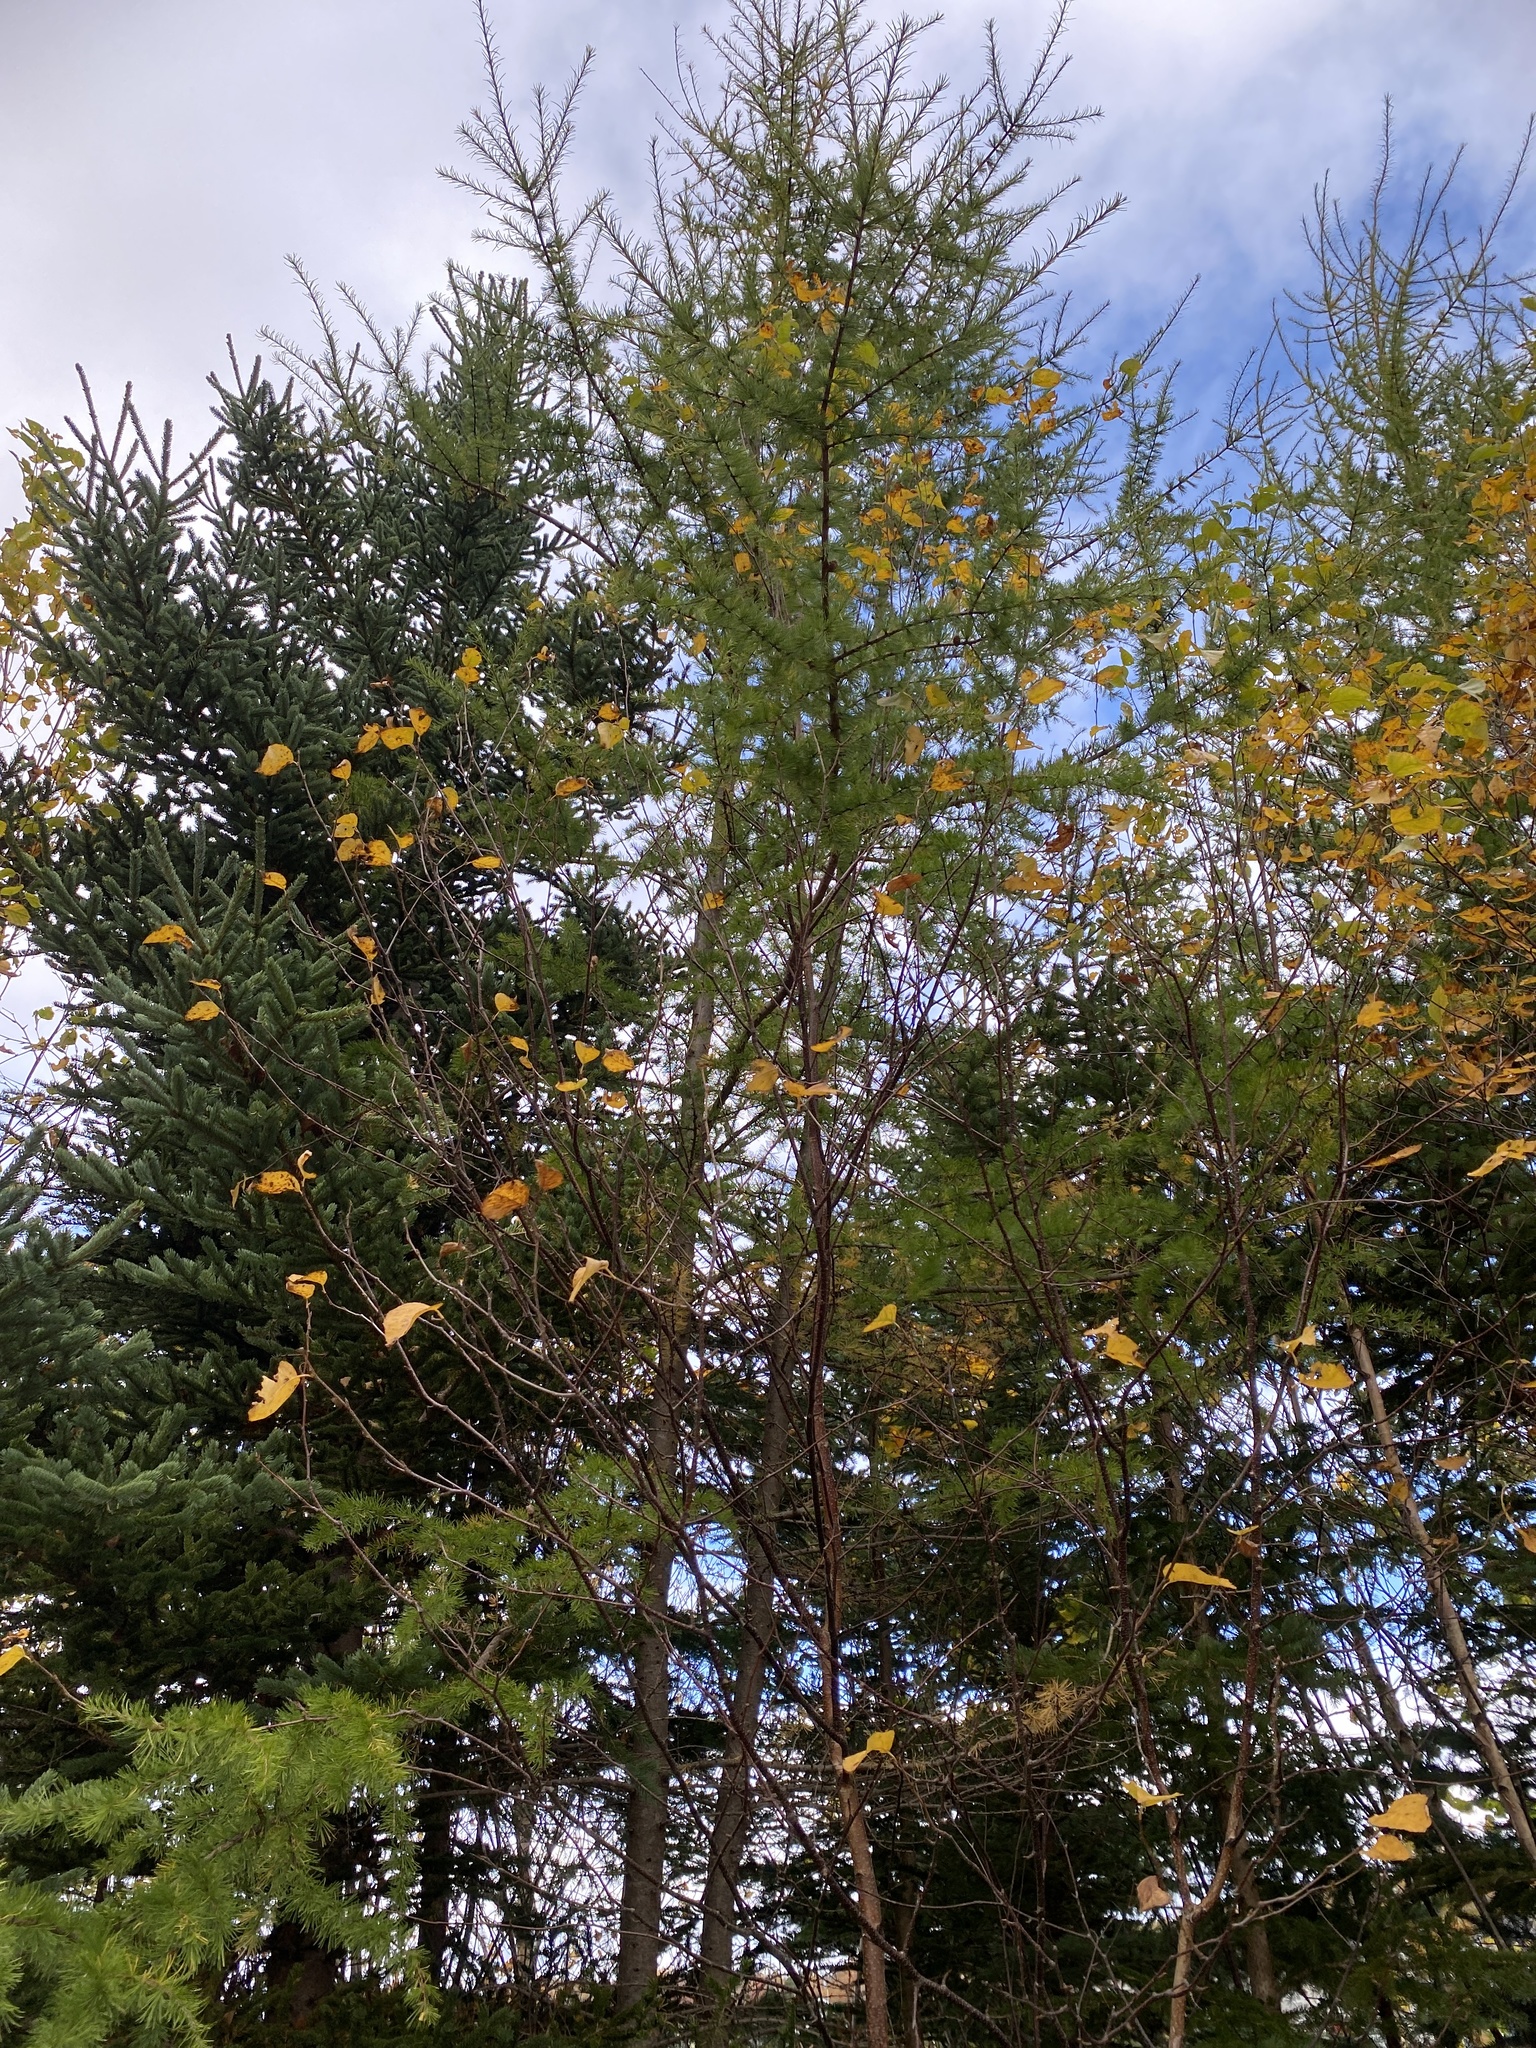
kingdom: Plantae
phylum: Tracheophyta
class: Pinopsida
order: Pinales
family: Pinaceae
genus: Larix
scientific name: Larix laricina
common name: American larch
